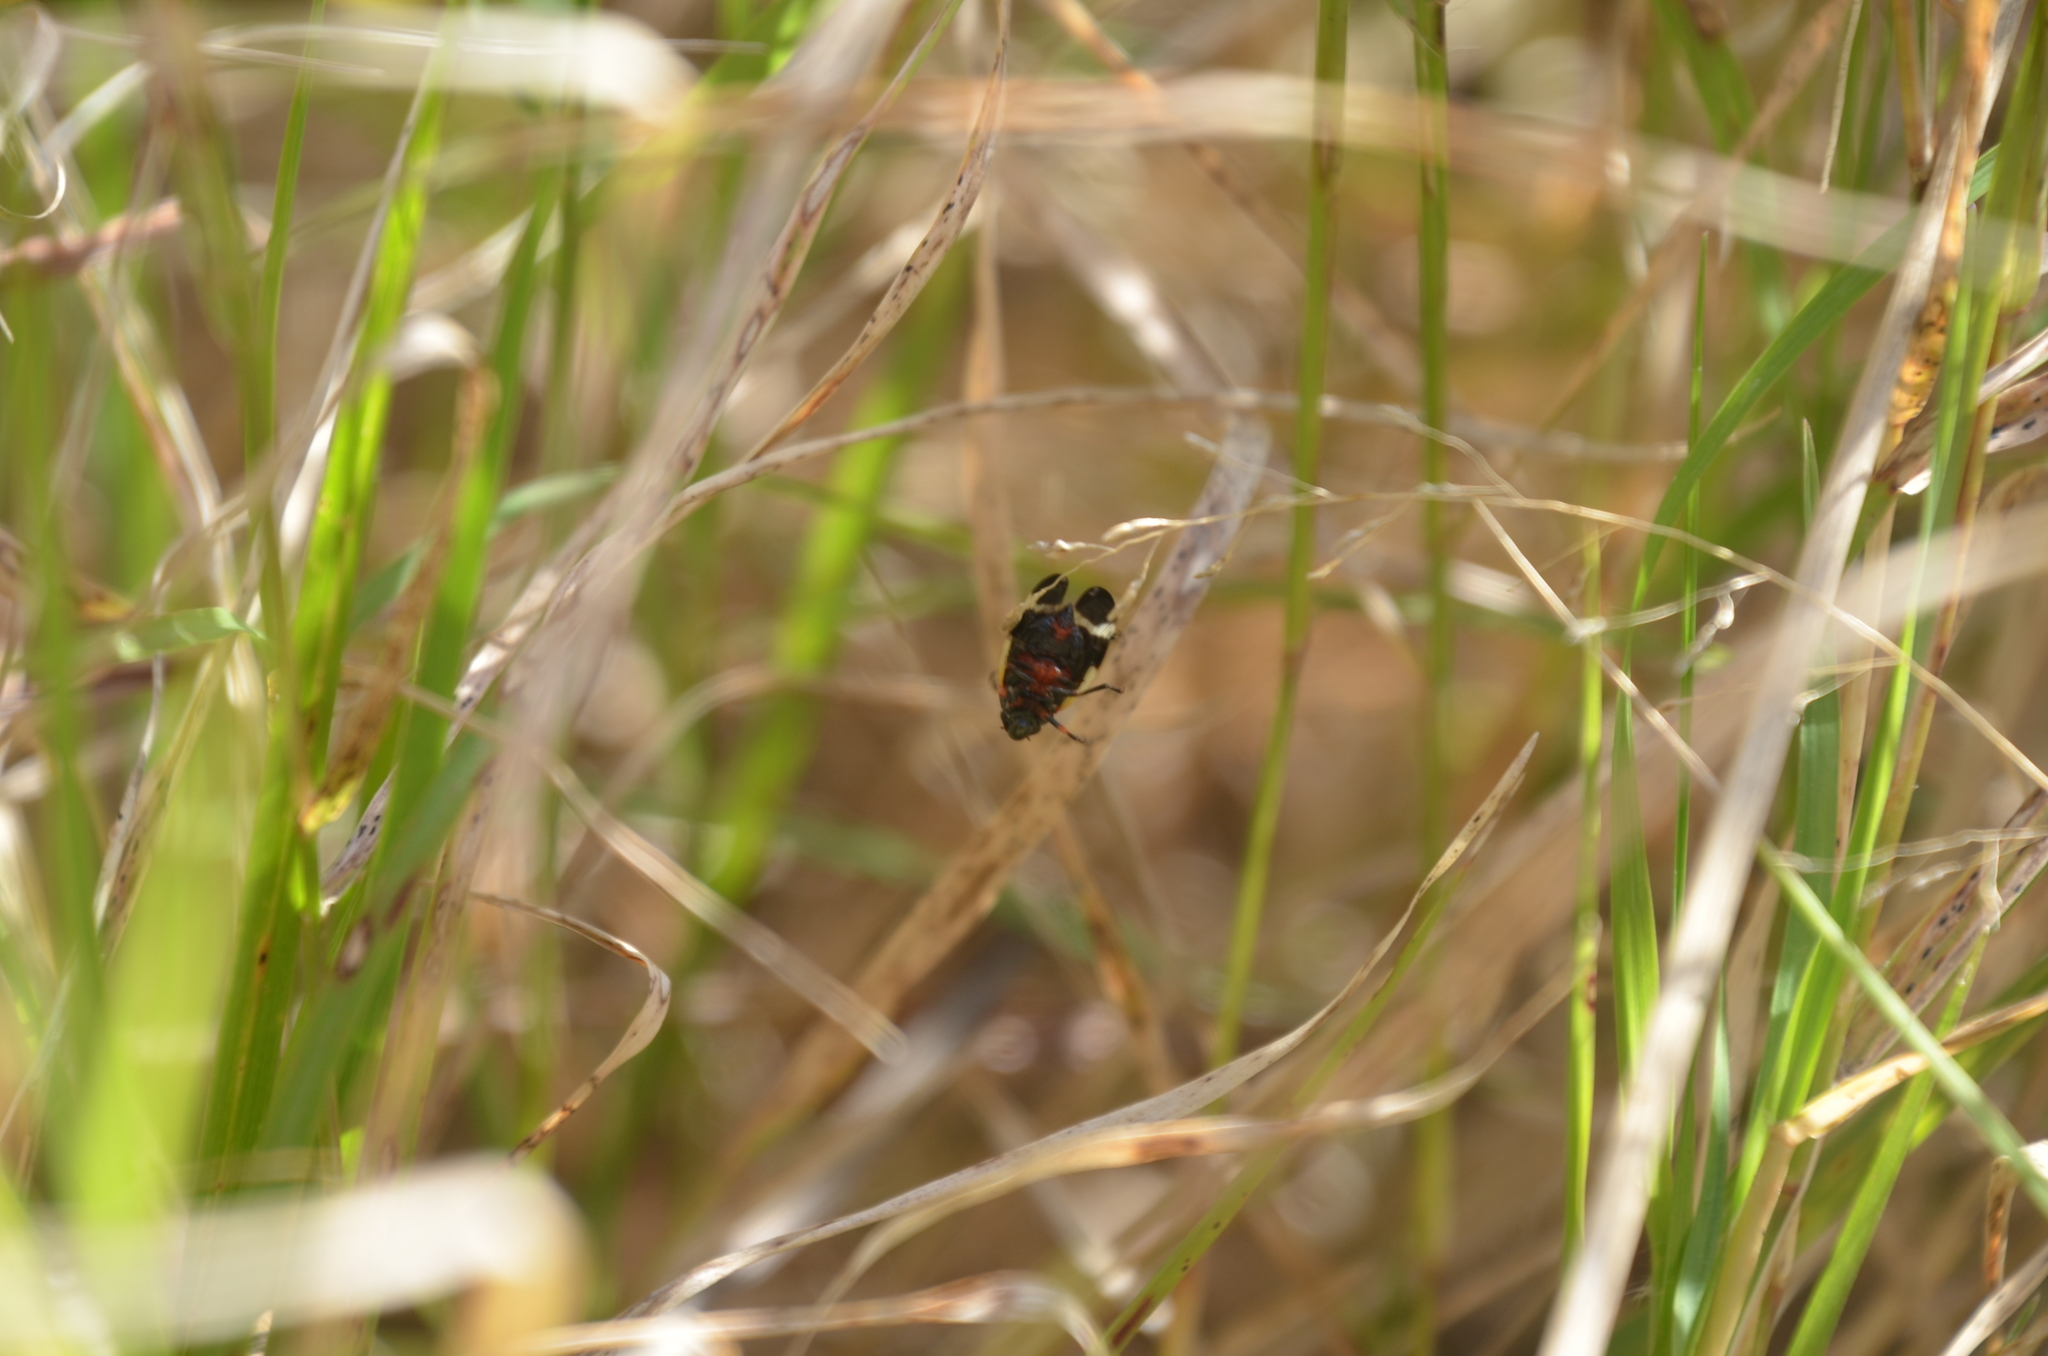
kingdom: Animalia
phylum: Arthropoda
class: Insecta
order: Hemiptera
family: Cercopidae
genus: Notozulia
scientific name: Notozulia entreriana
